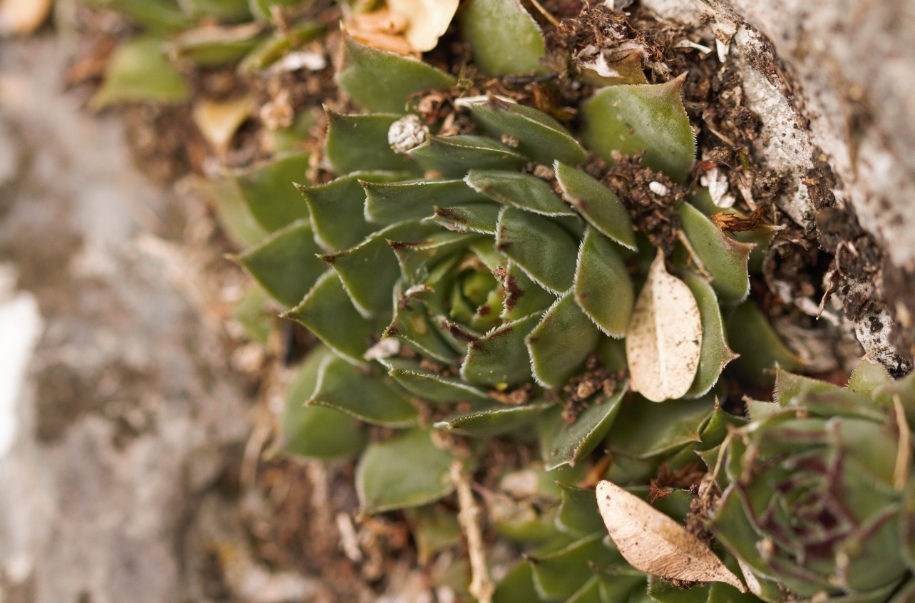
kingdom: Plantae
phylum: Tracheophyta
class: Magnoliopsida
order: Saxifragales
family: Crassulaceae
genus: Sempervivum
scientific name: Sempervivum tectorum
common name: House-leek
